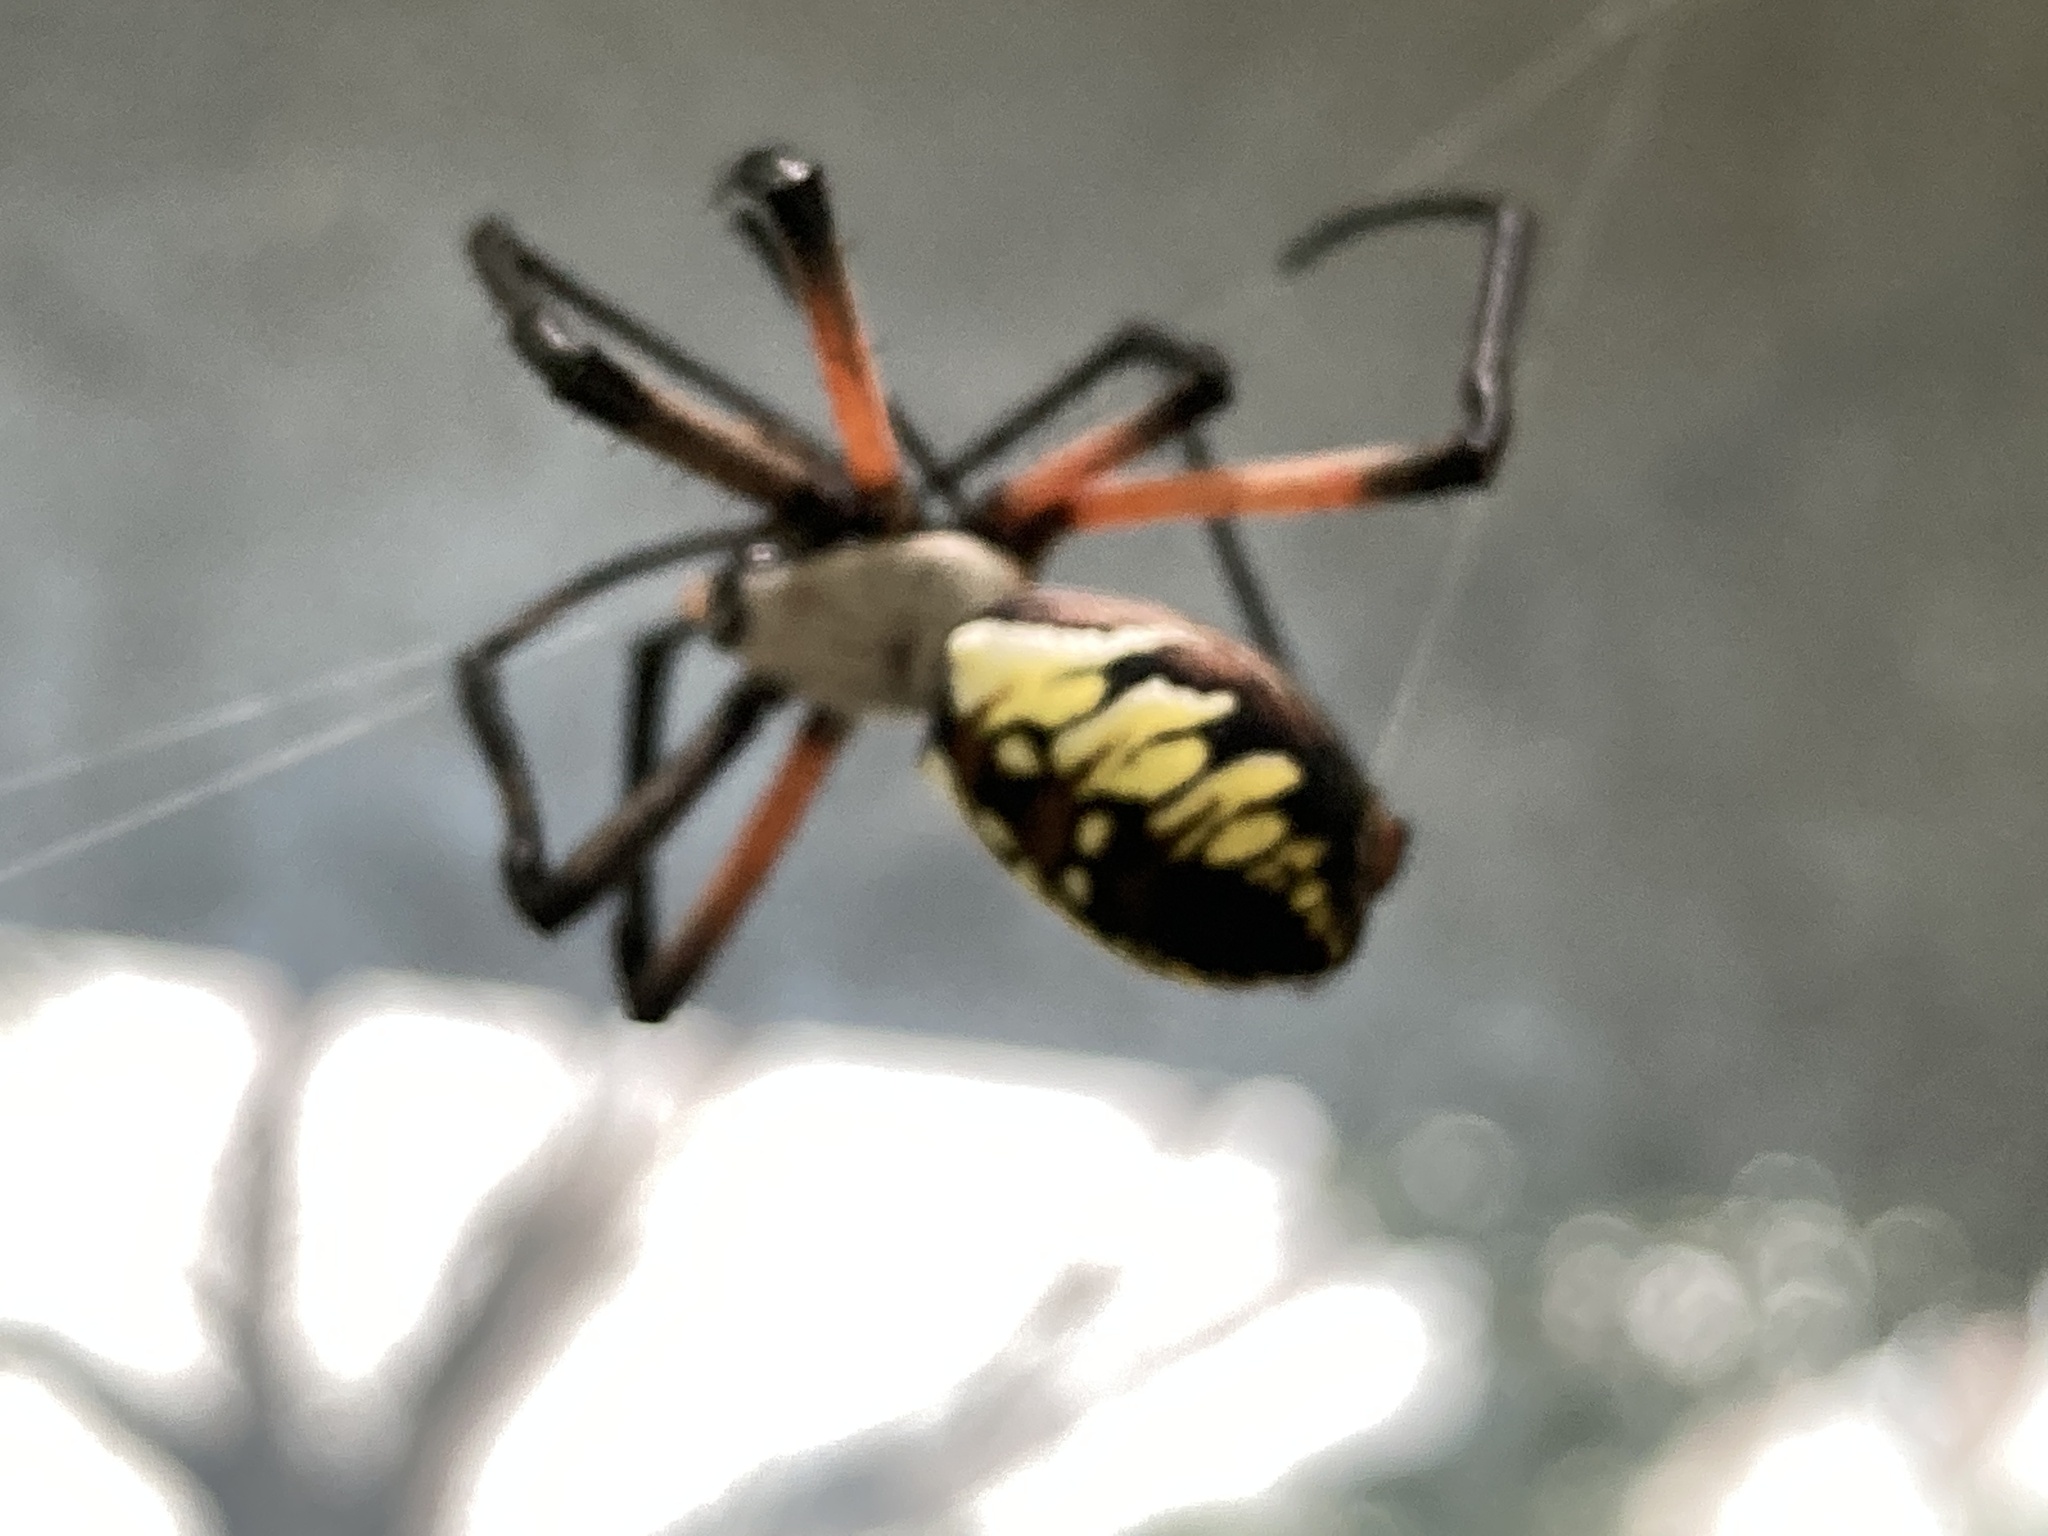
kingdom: Animalia
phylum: Arthropoda
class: Arachnida
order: Araneae
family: Araneidae
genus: Argiope
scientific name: Argiope aurantia
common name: Orb weavers
